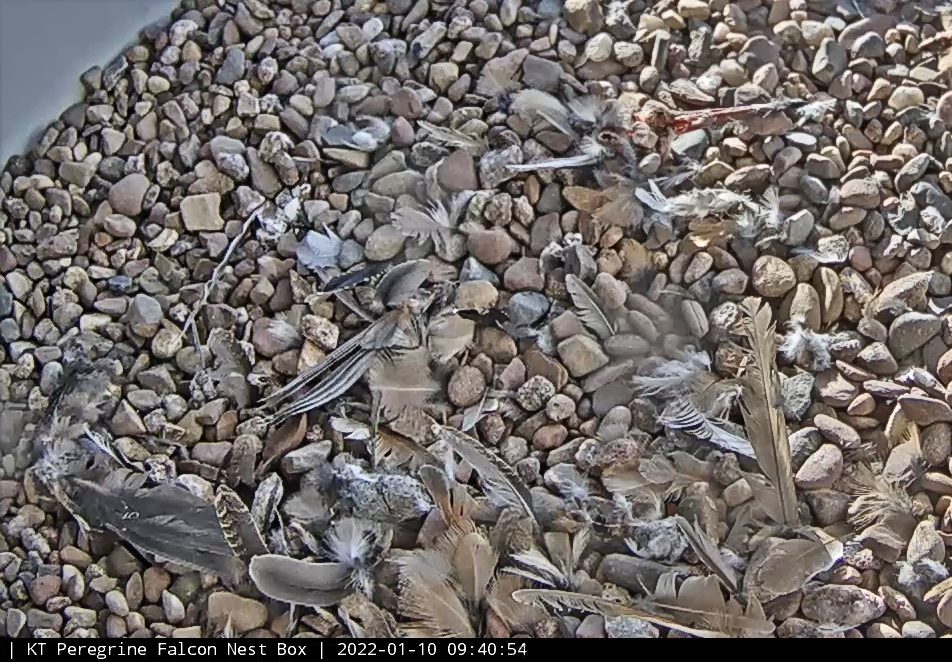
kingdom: Animalia
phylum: Chordata
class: Aves
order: Charadriiformes
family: Scolopacidae
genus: Scolopax
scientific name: Scolopax minor
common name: American woodcock
